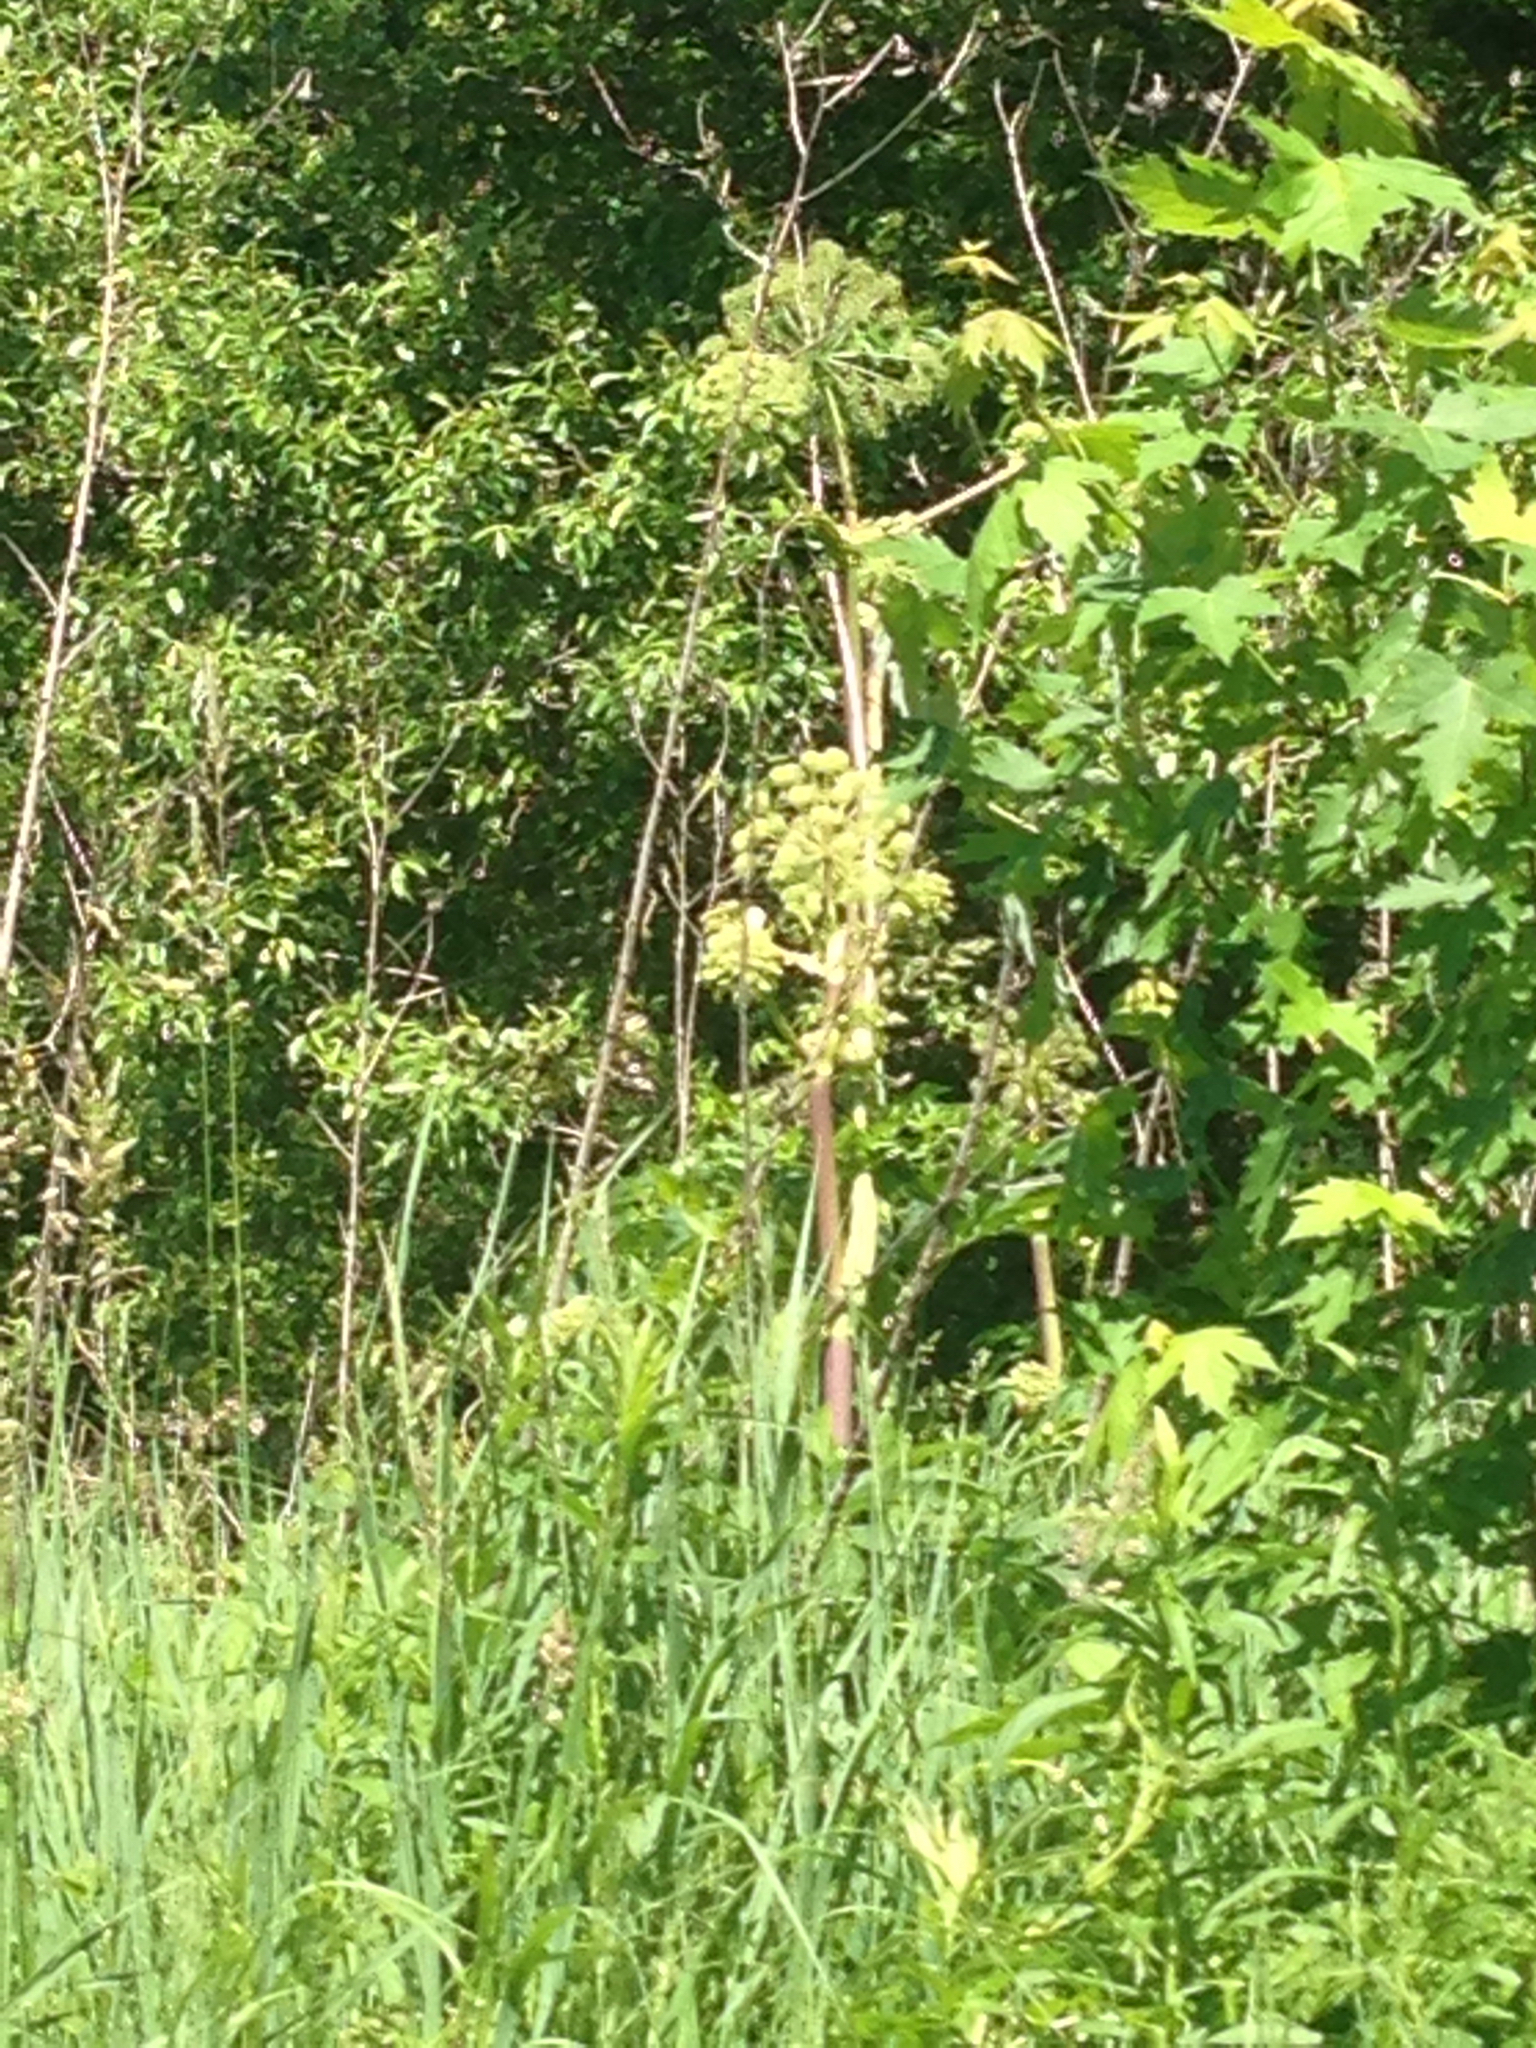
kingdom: Plantae
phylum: Tracheophyta
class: Magnoliopsida
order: Apiales
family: Apiaceae
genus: Angelica
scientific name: Angelica atropurpurea
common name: Great angelica
